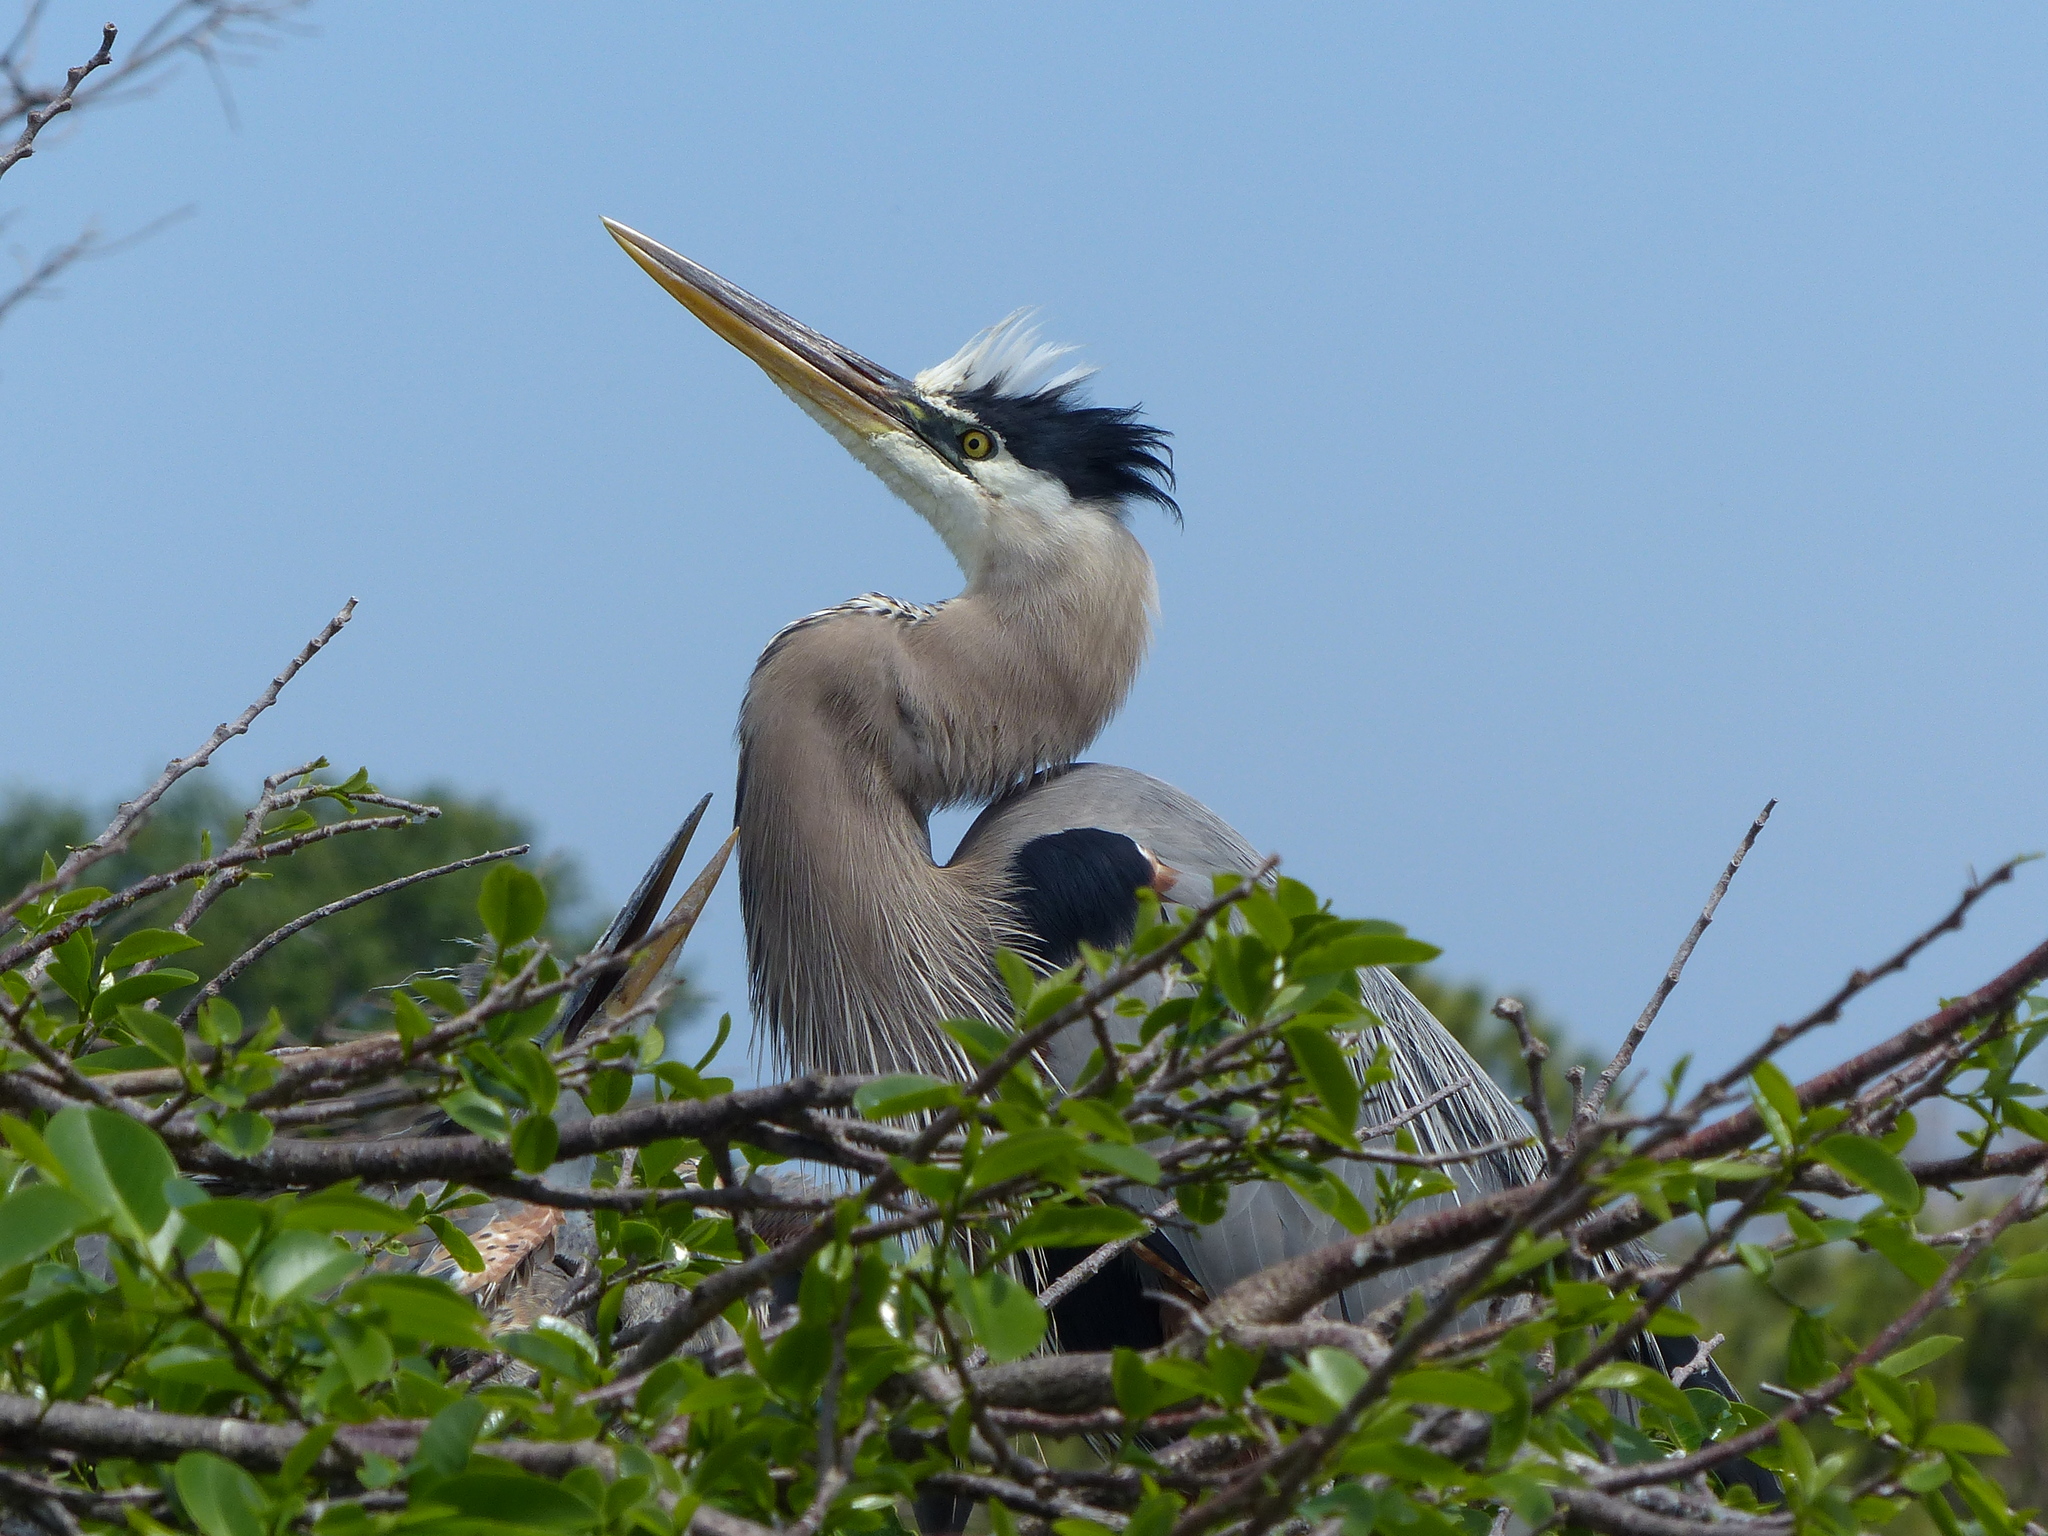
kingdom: Animalia
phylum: Chordata
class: Aves
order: Pelecaniformes
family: Ardeidae
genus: Ardea
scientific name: Ardea herodias
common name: Great blue heron
